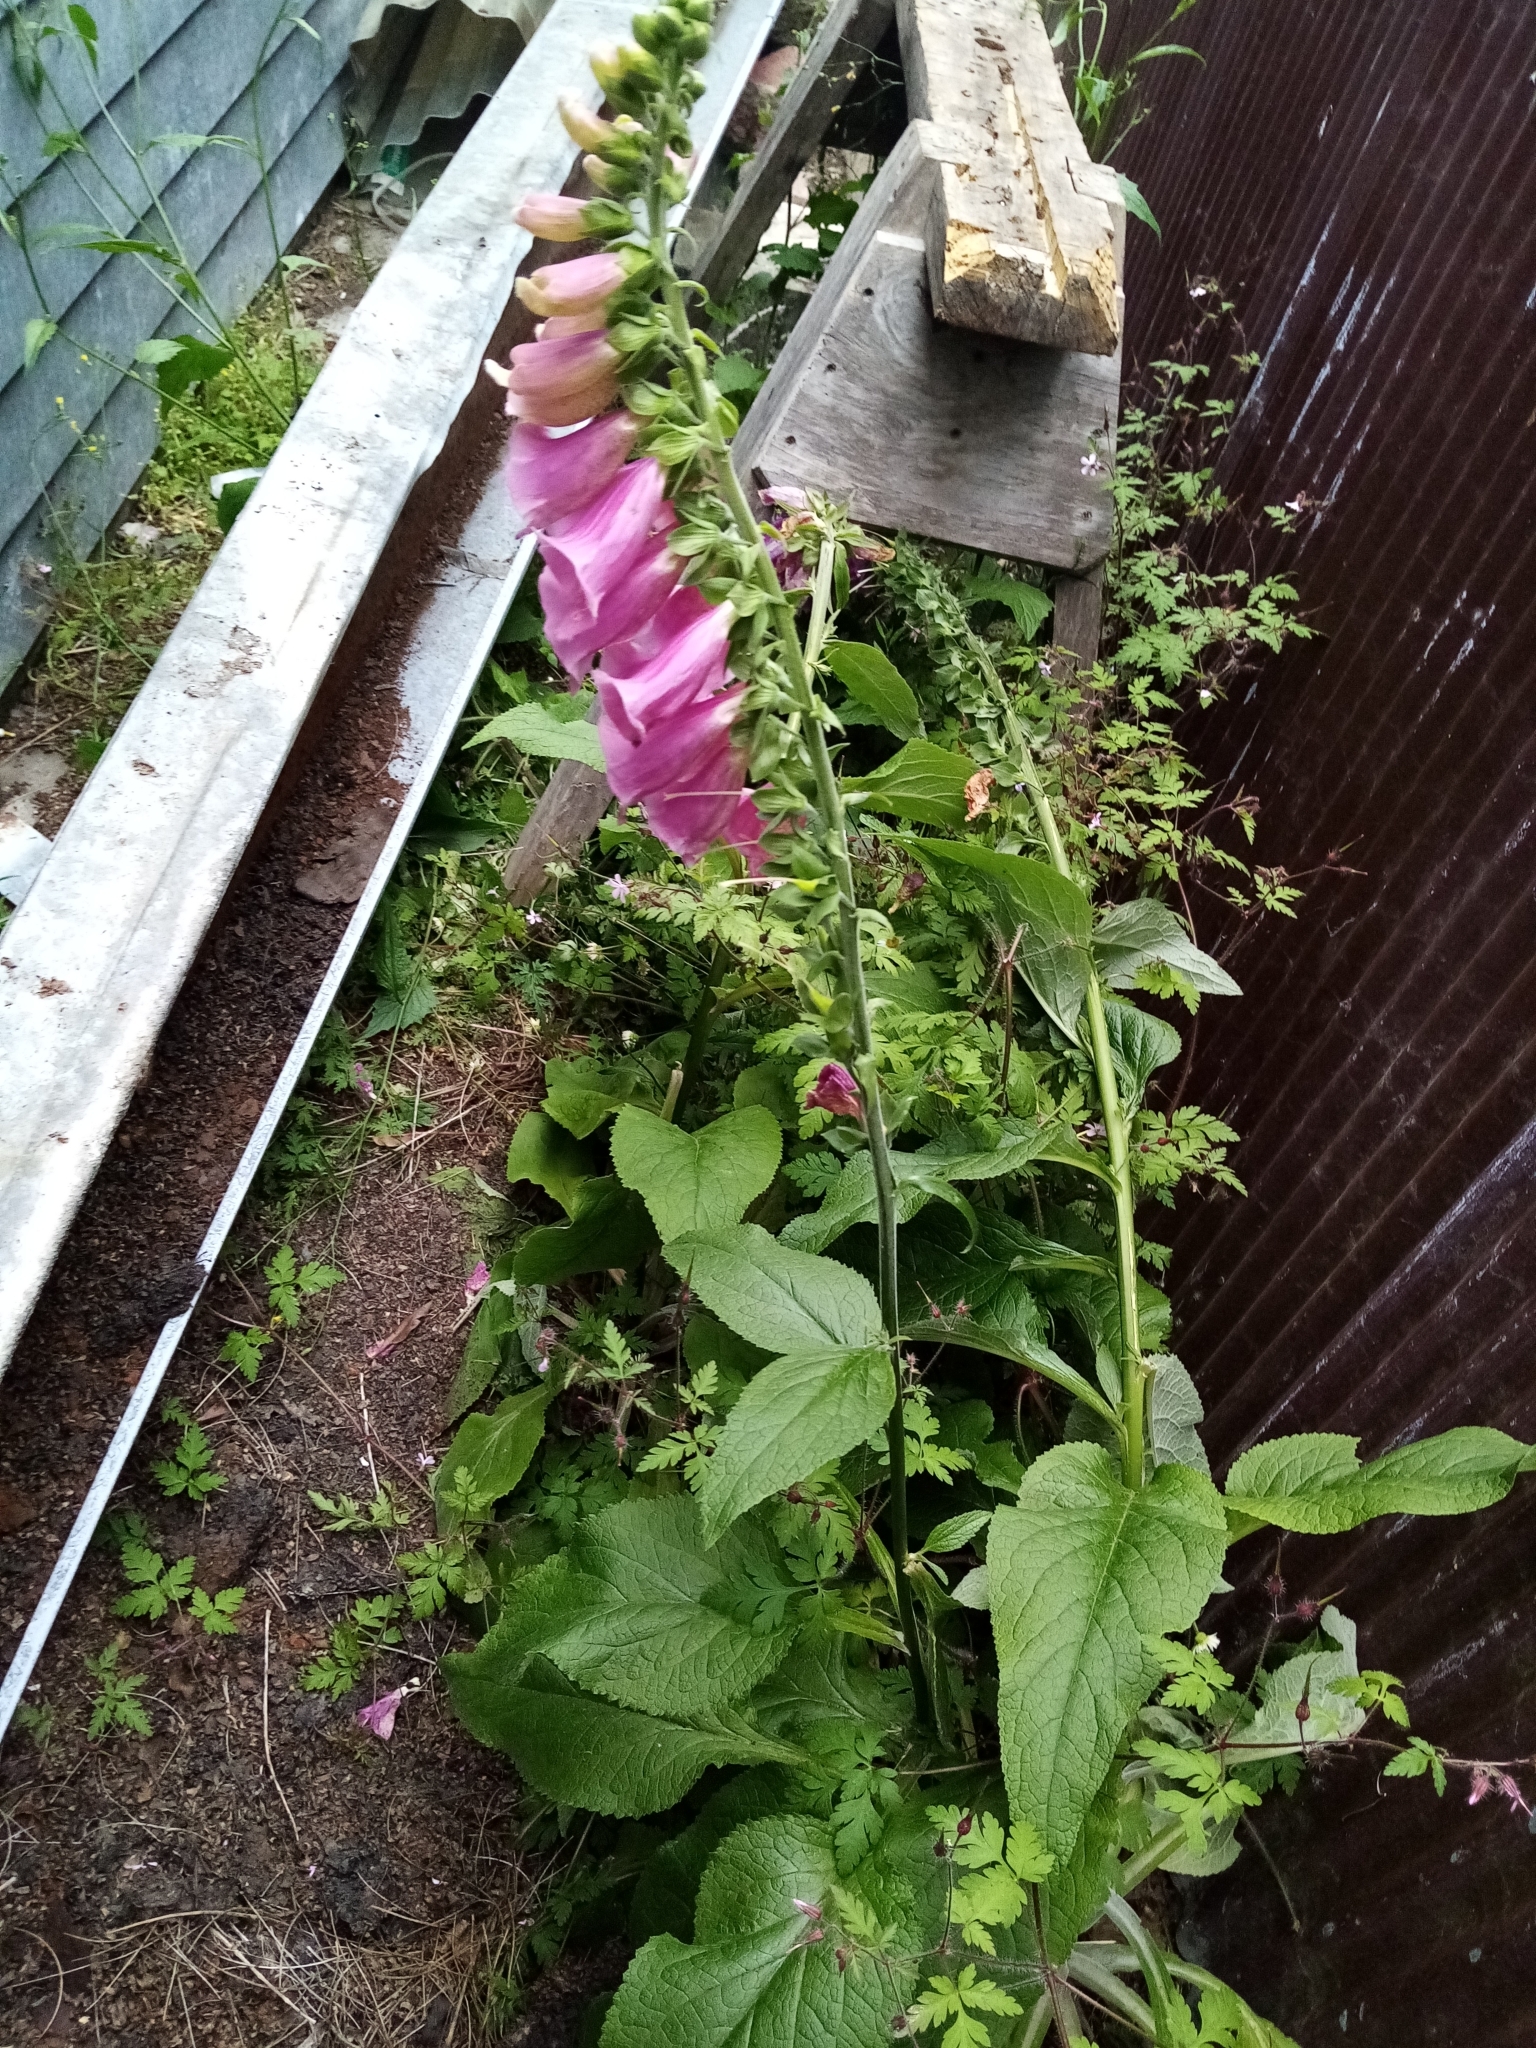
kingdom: Plantae
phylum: Tracheophyta
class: Magnoliopsida
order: Lamiales
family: Plantaginaceae
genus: Digitalis
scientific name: Digitalis purpurea
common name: Foxglove
